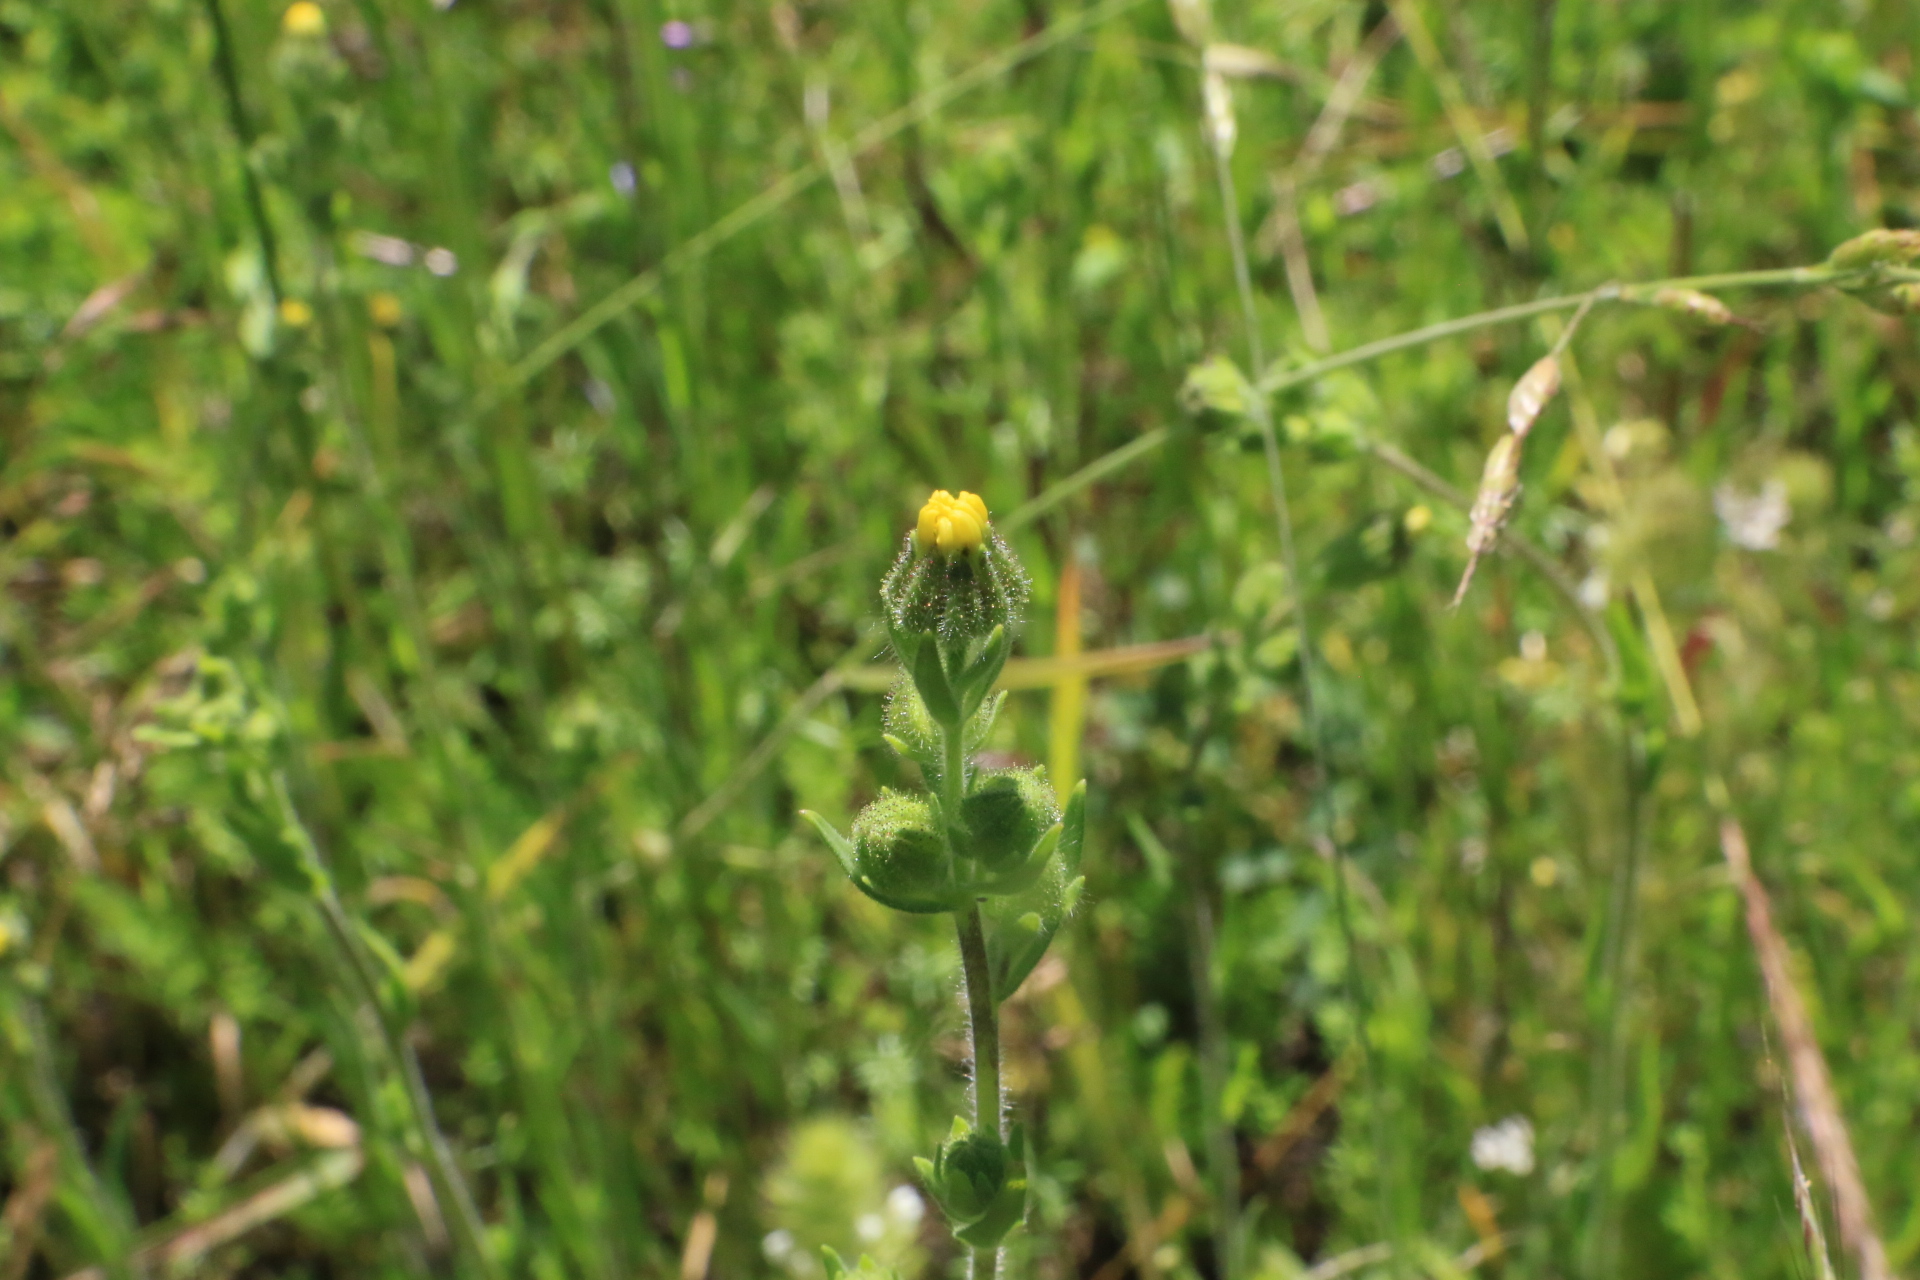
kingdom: Plantae
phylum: Tracheophyta
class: Magnoliopsida
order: Asterales
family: Asteraceae
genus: Madia
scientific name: Madia gracilis
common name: Grassy tarweed
